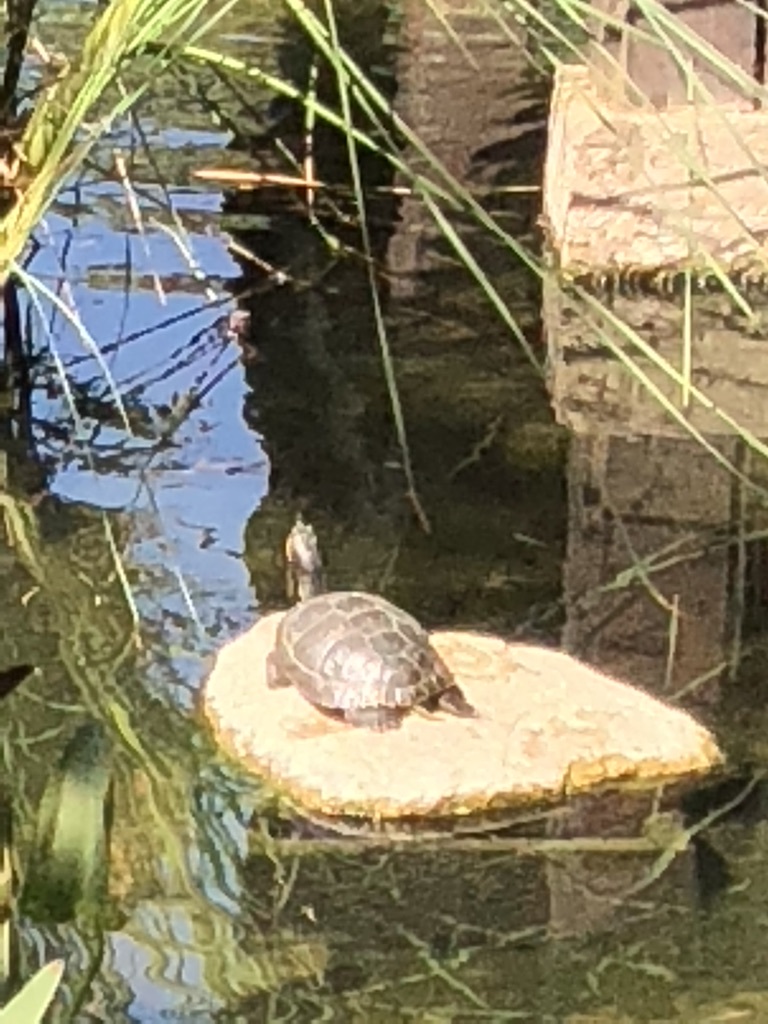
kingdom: Animalia
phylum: Chordata
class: Testudines
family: Emydidae
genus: Trachemys
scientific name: Trachemys scripta
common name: Slider
